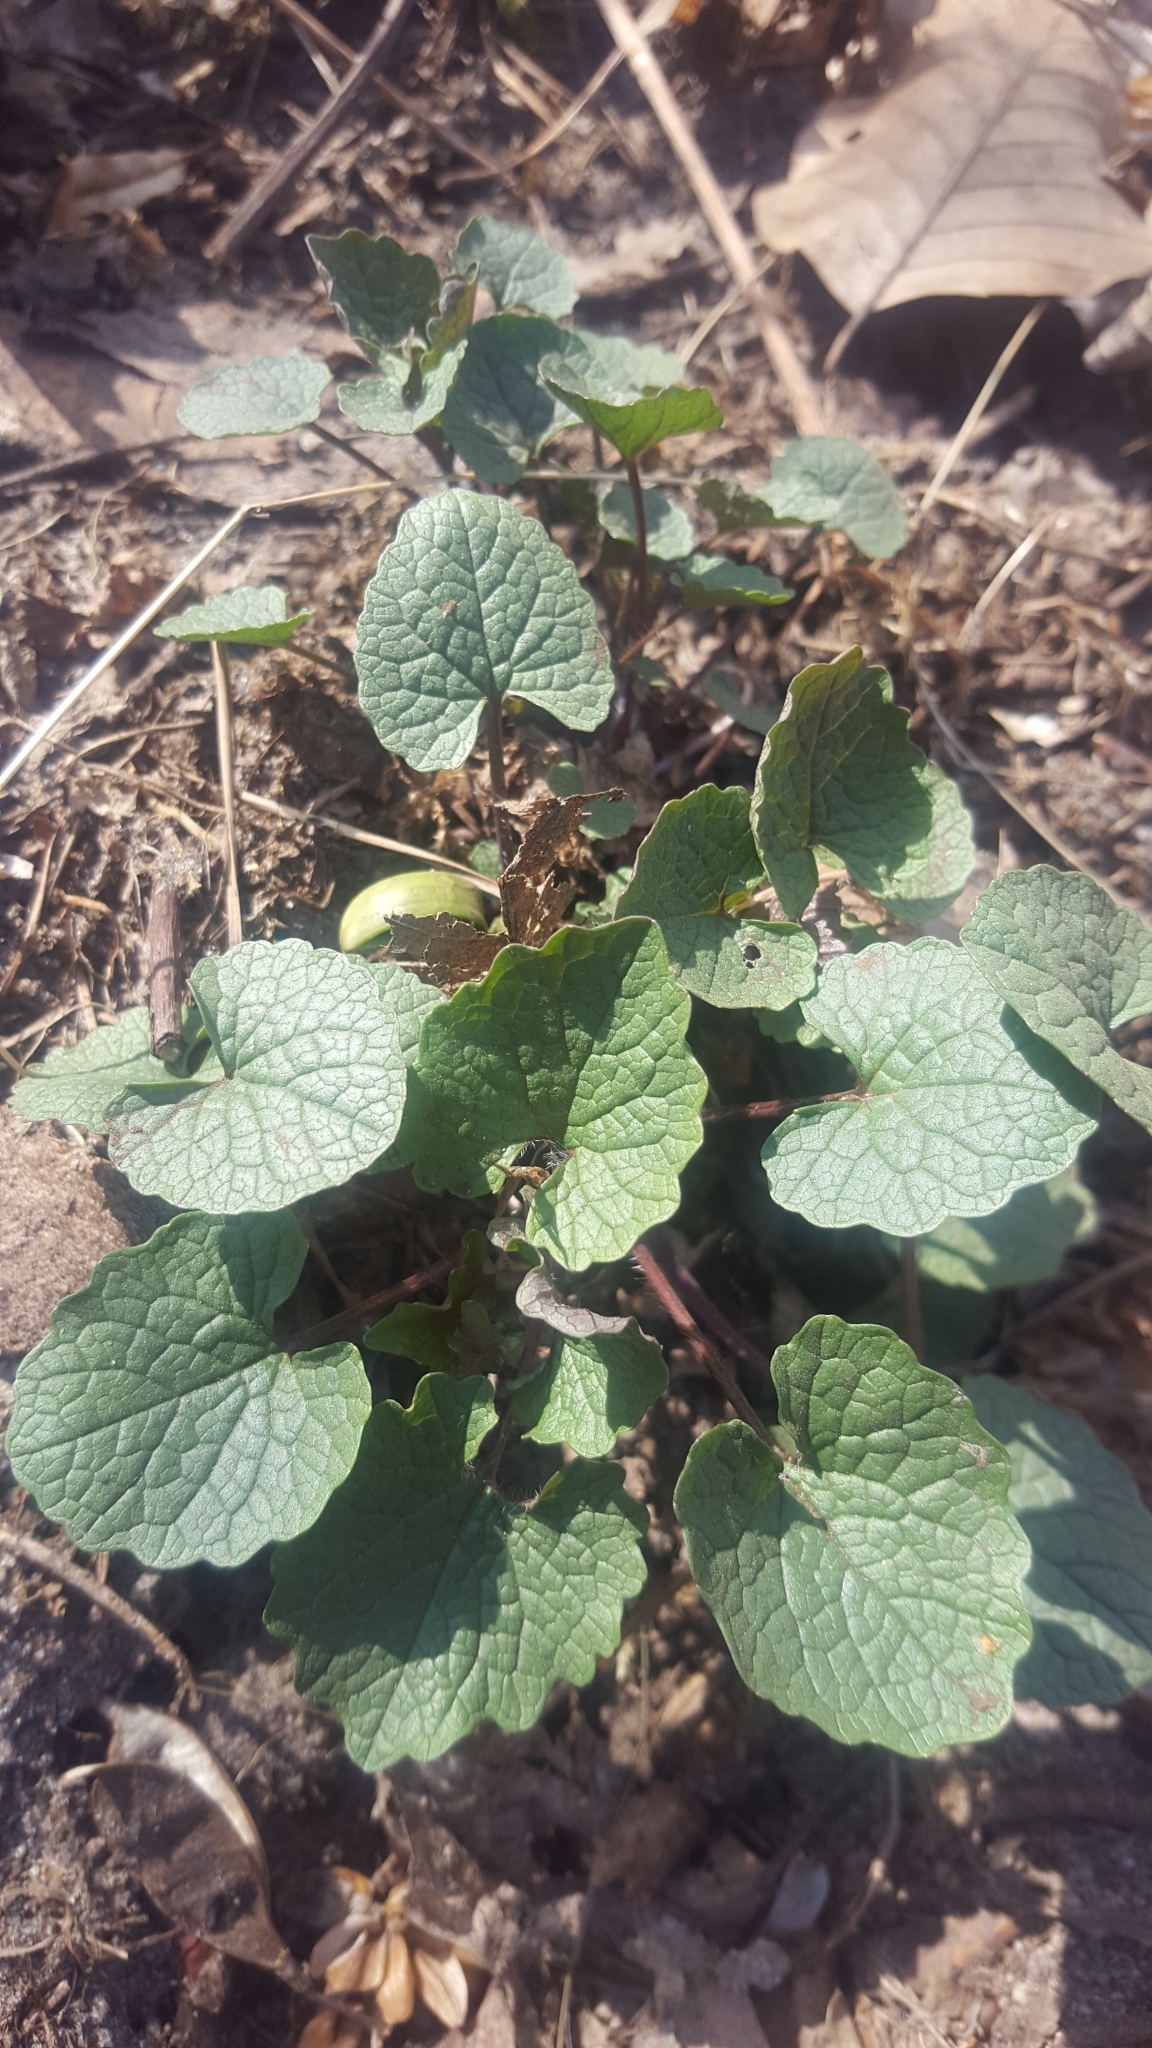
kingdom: Plantae
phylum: Tracheophyta
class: Magnoliopsida
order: Brassicales
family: Brassicaceae
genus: Alliaria
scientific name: Alliaria petiolata
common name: Garlic mustard
